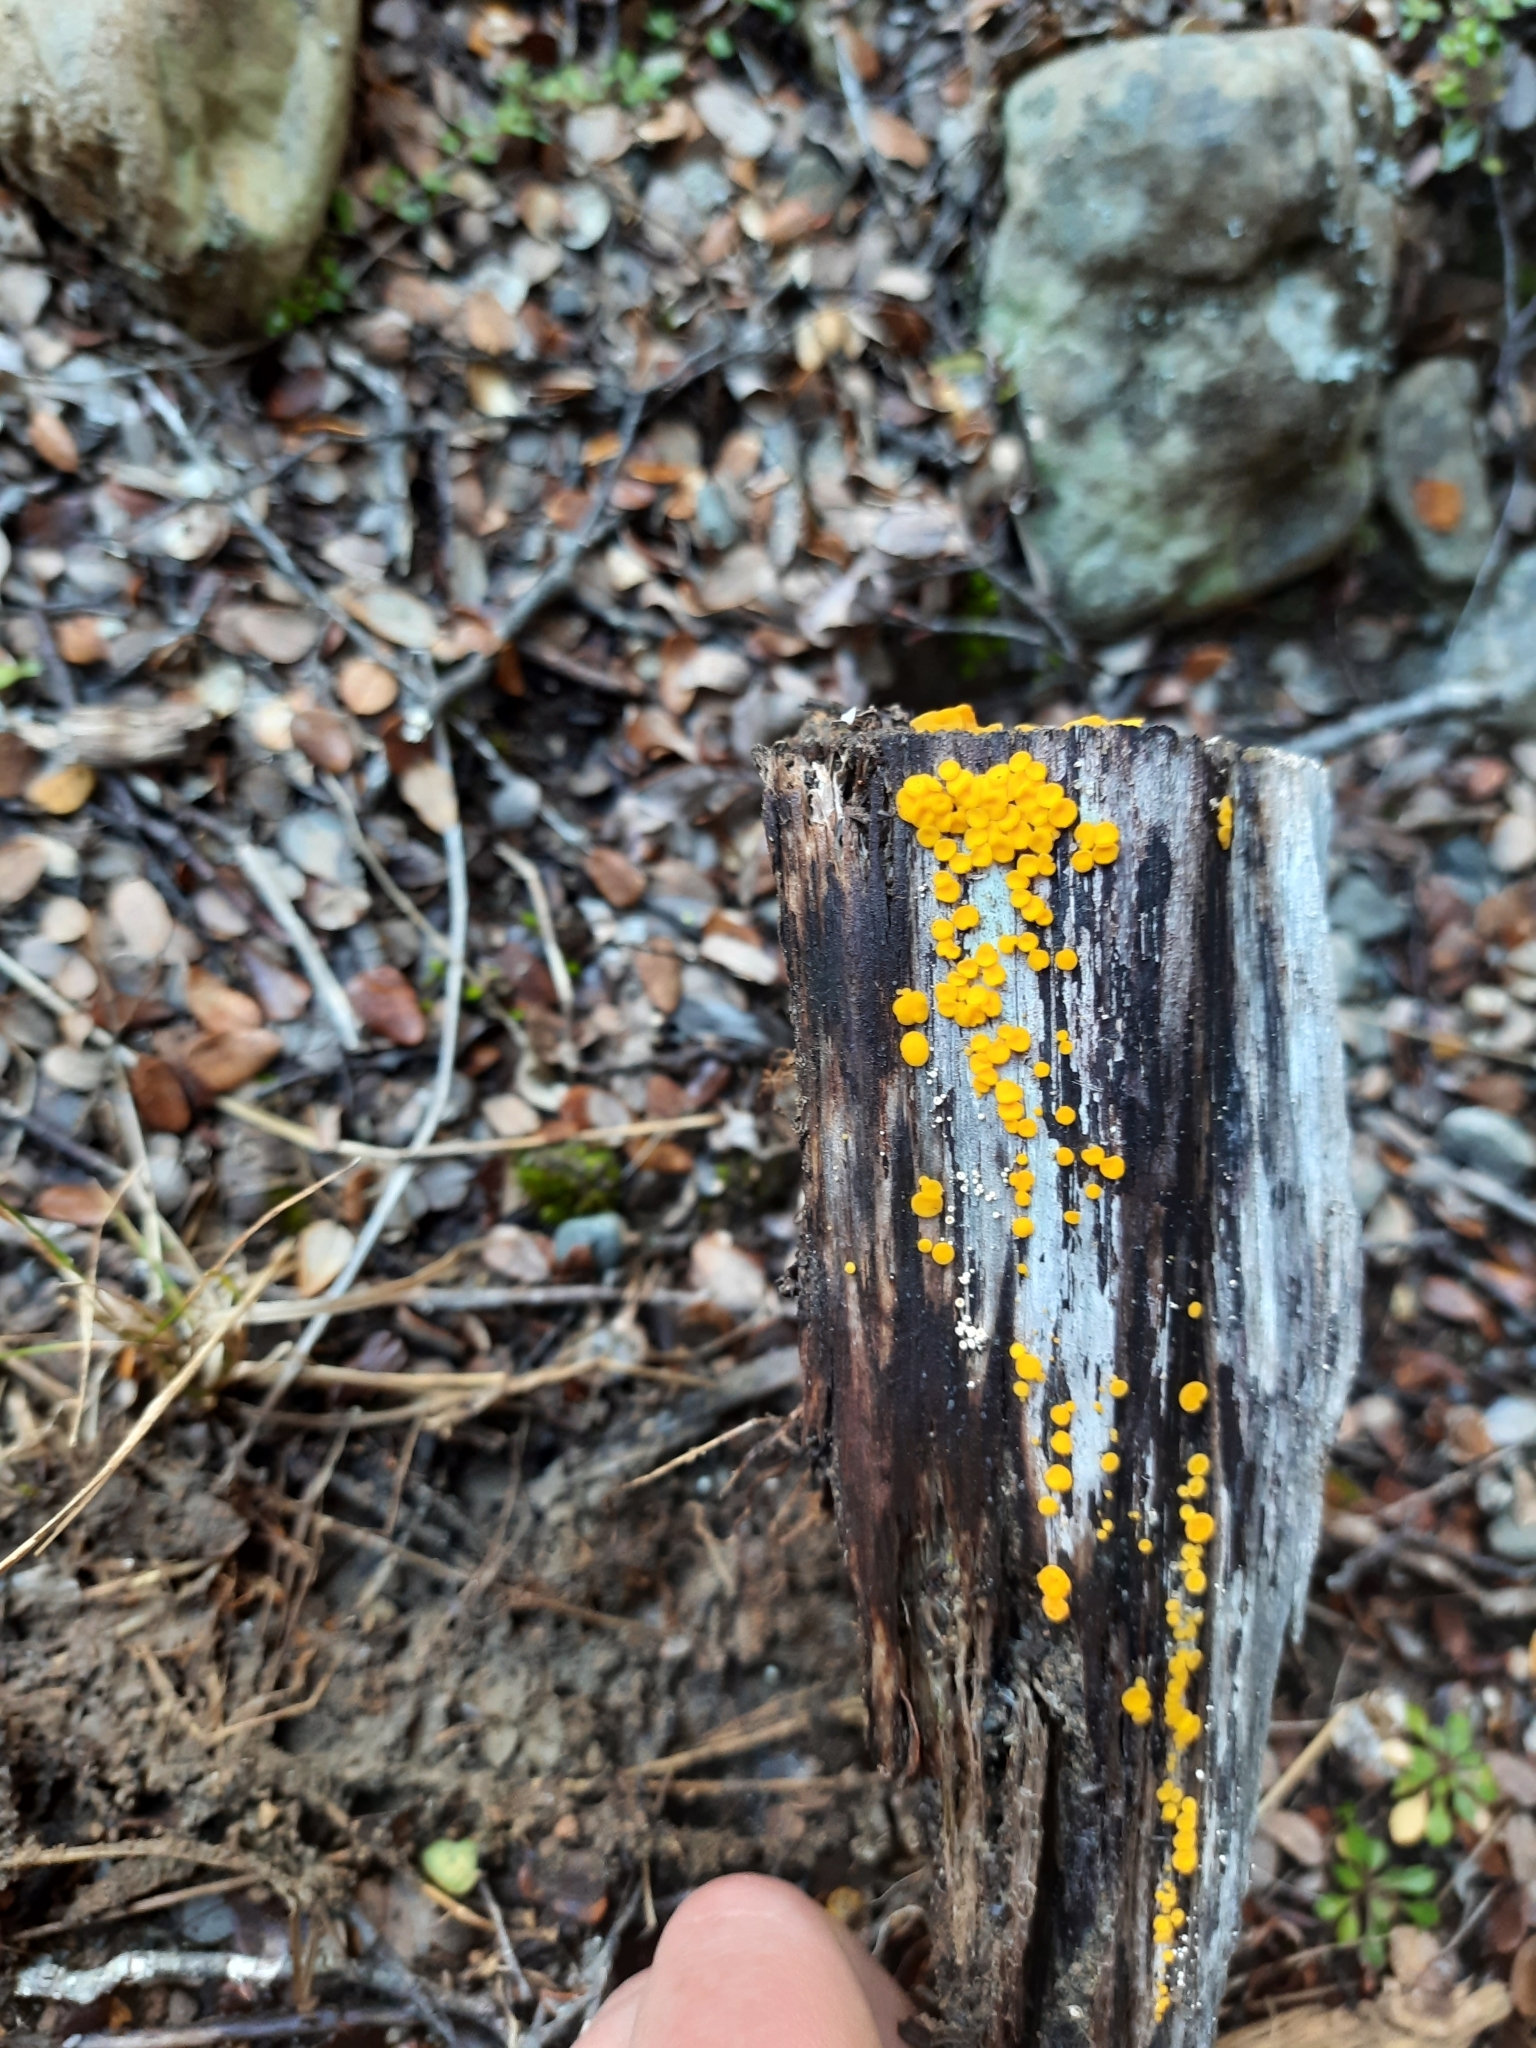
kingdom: Fungi
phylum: Ascomycota
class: Leotiomycetes
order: Helotiales
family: Pezizellaceae
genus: Calycina
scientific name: Calycina citrina
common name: Yellow fairy cups
